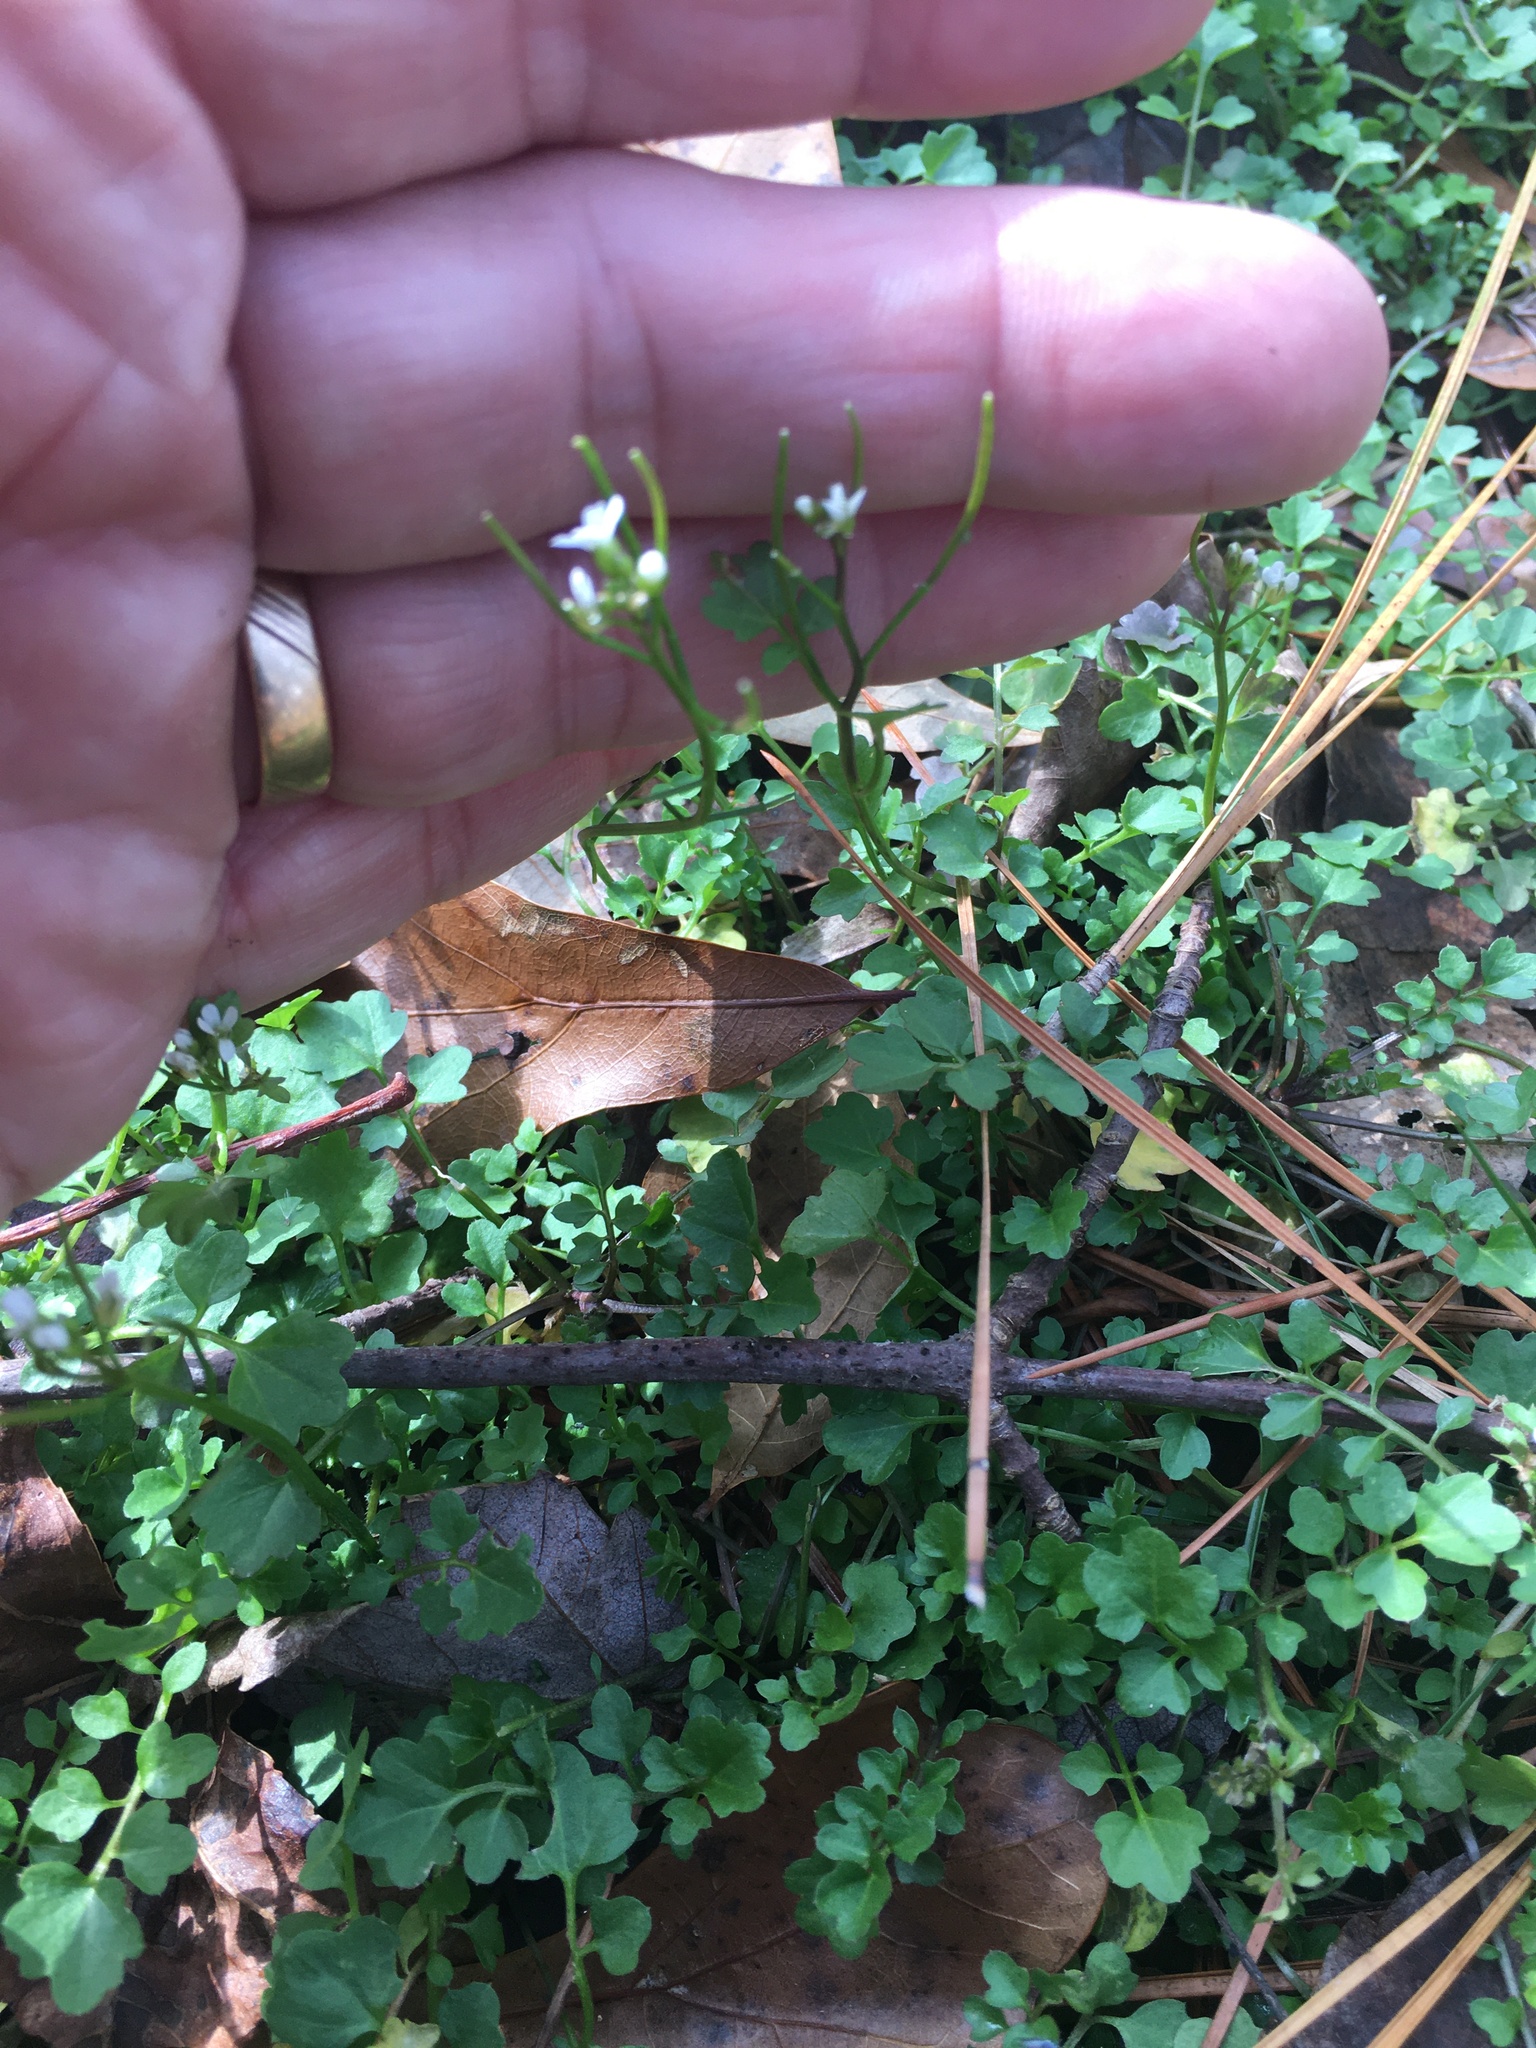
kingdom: Plantae
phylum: Tracheophyta
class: Magnoliopsida
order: Brassicales
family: Brassicaceae
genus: Cardamine
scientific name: Cardamine hirsuta
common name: Hairy bittercress
